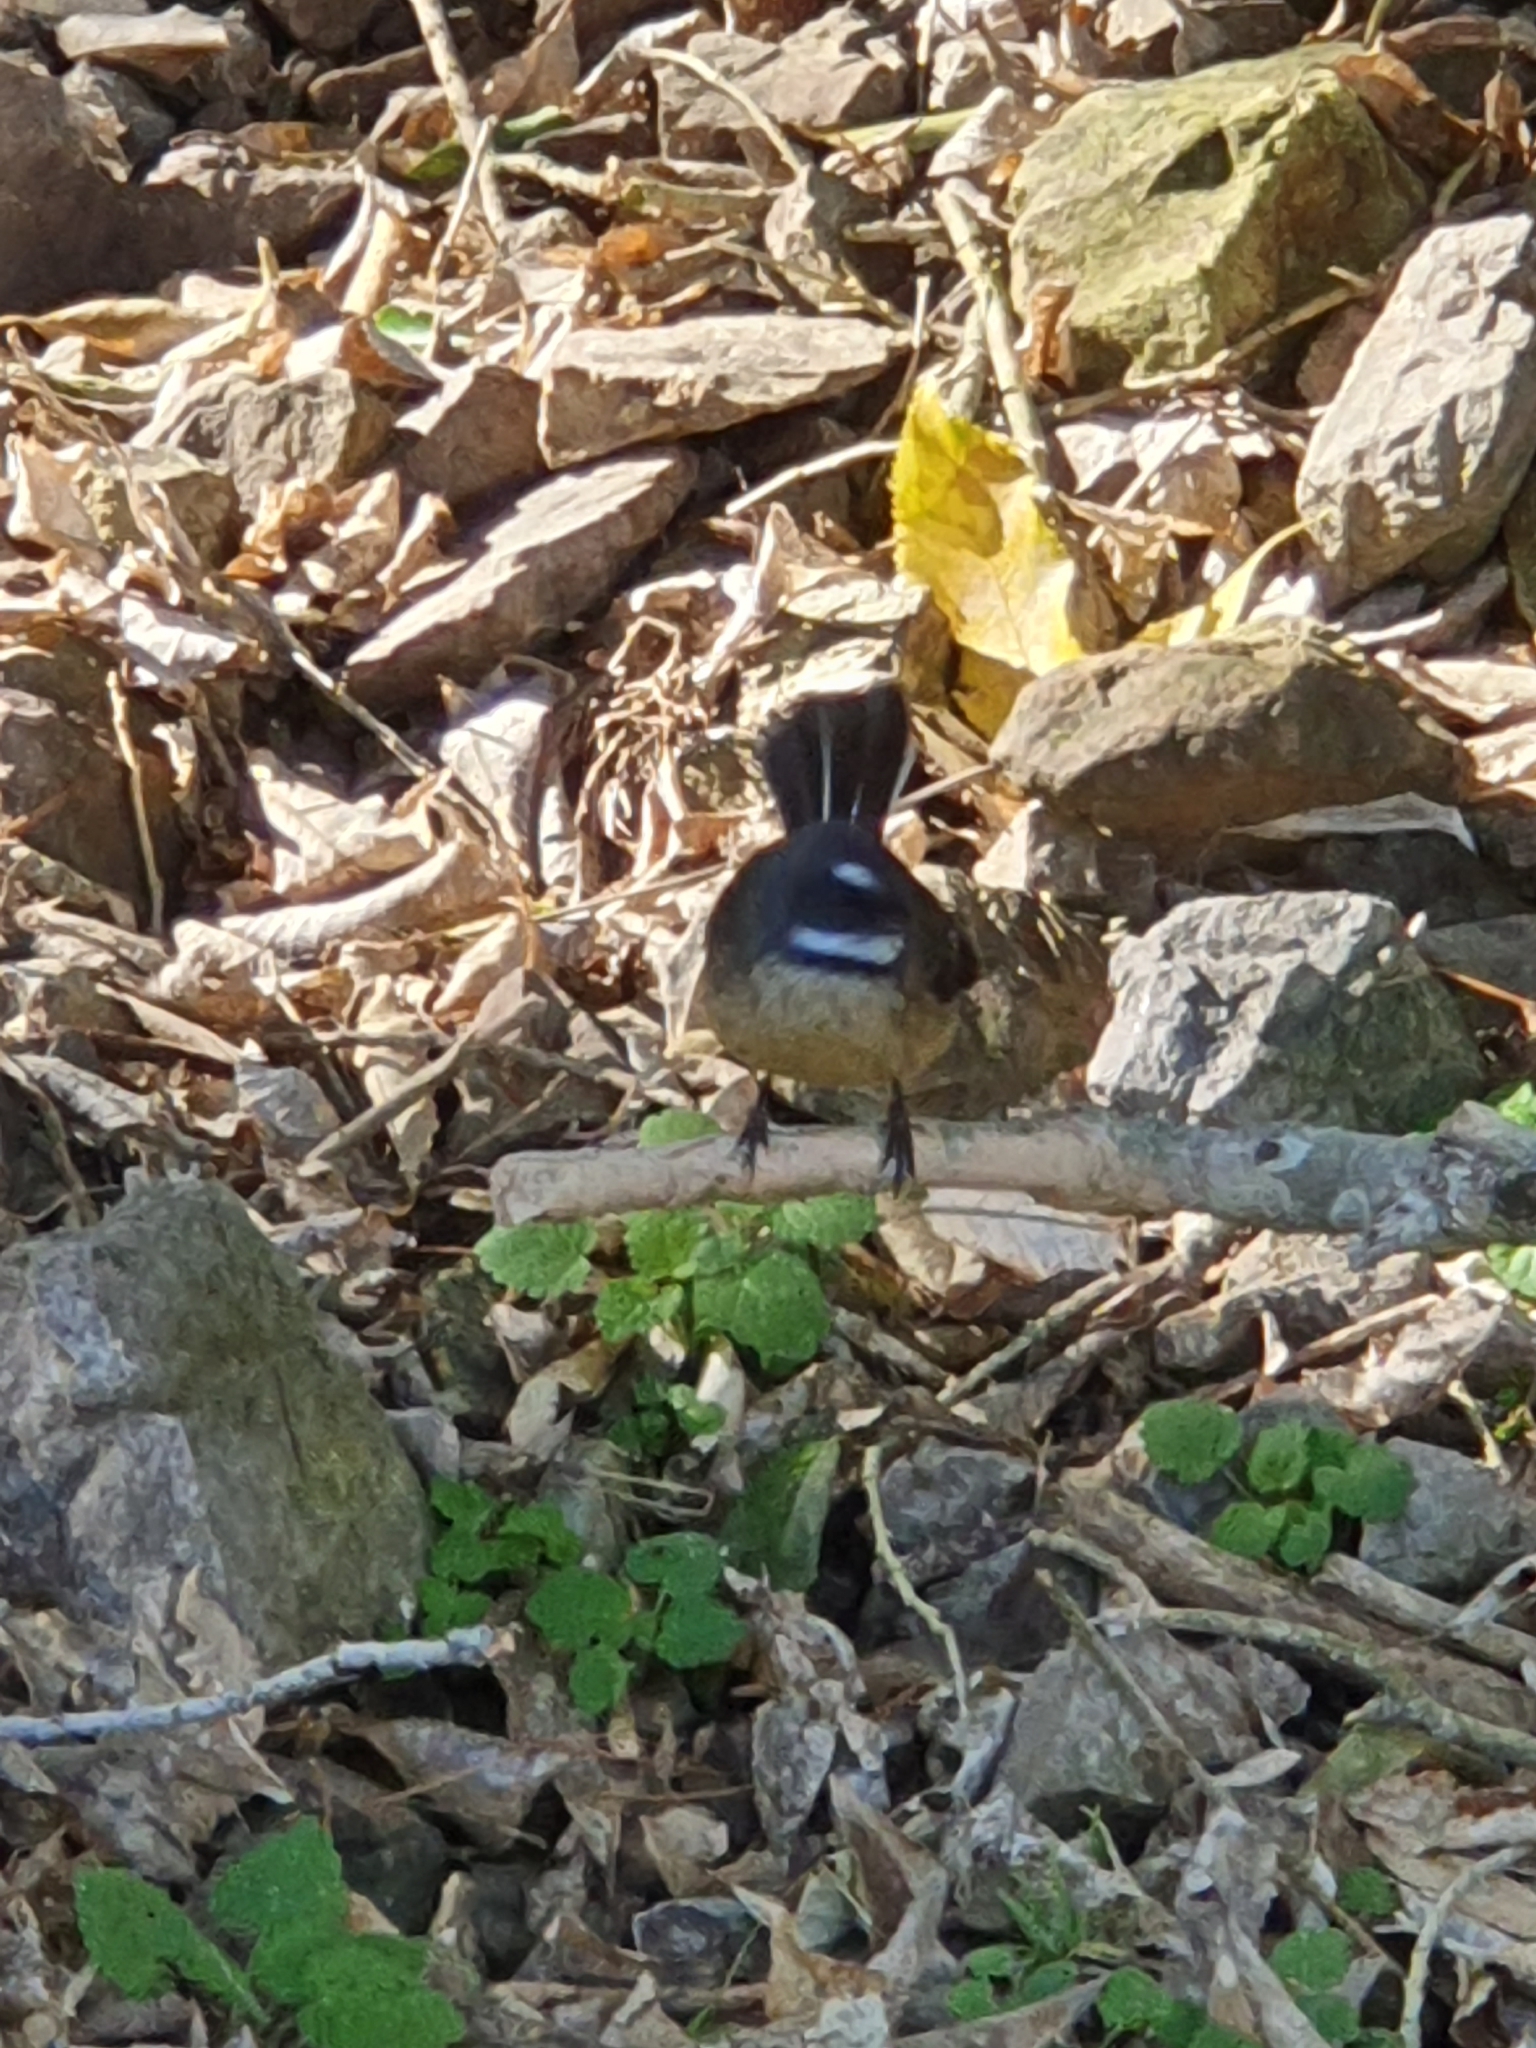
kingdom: Animalia
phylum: Chordata
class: Aves
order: Passeriformes
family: Rhipiduridae
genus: Rhipidura
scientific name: Rhipidura fuliginosa
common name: New zealand fantail
